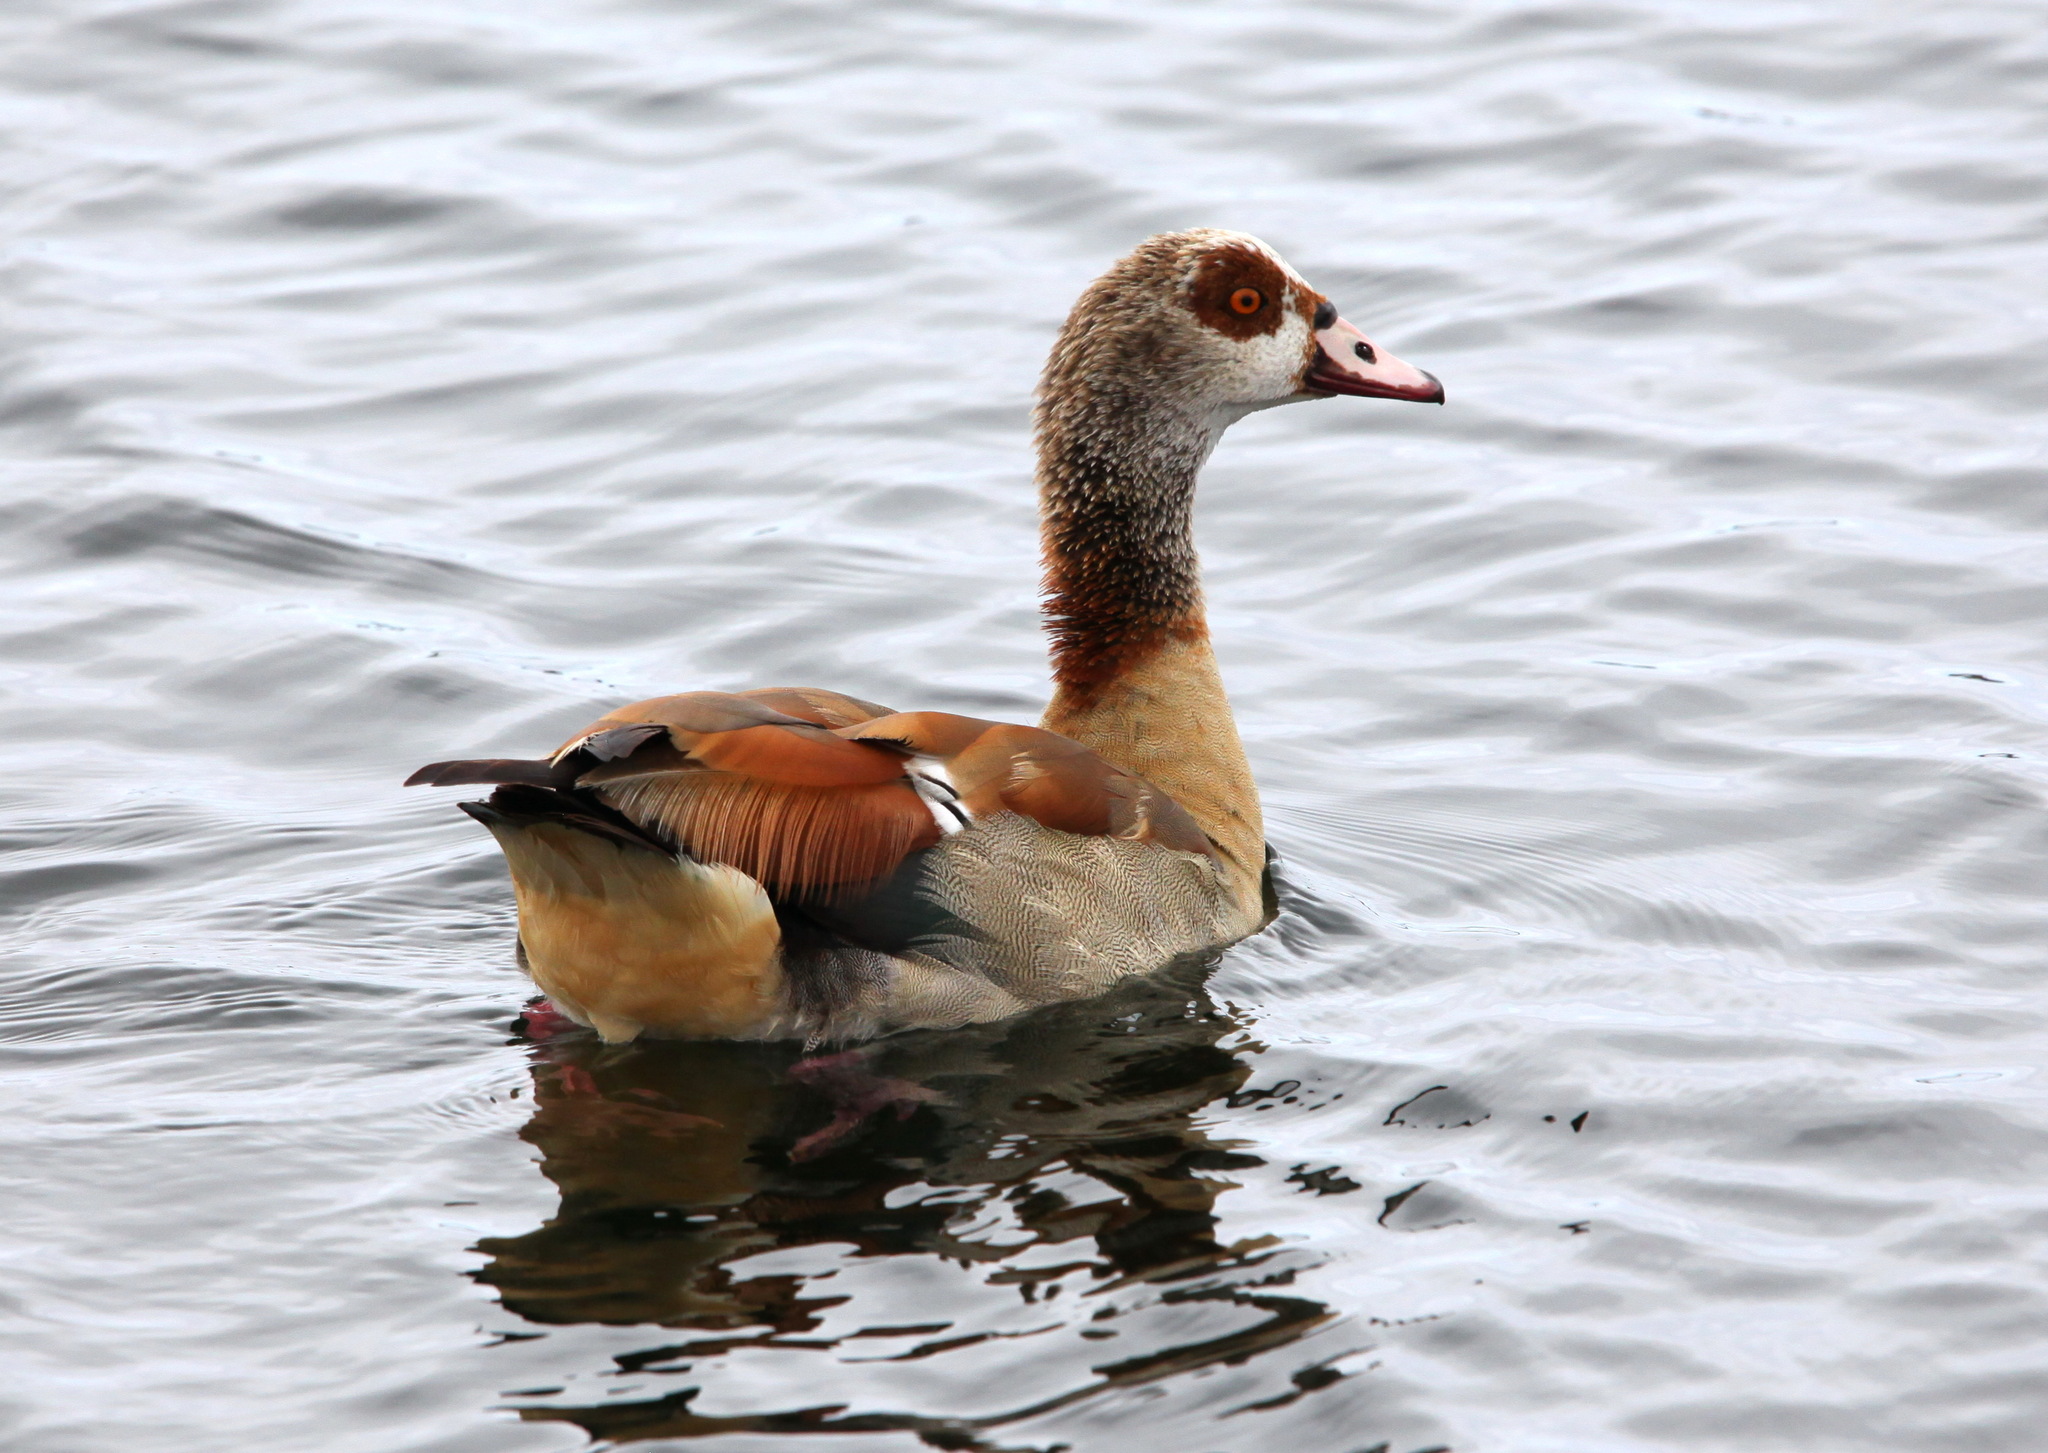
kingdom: Animalia
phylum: Chordata
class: Aves
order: Anseriformes
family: Anatidae
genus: Alopochen
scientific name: Alopochen aegyptiaca
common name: Egyptian goose
